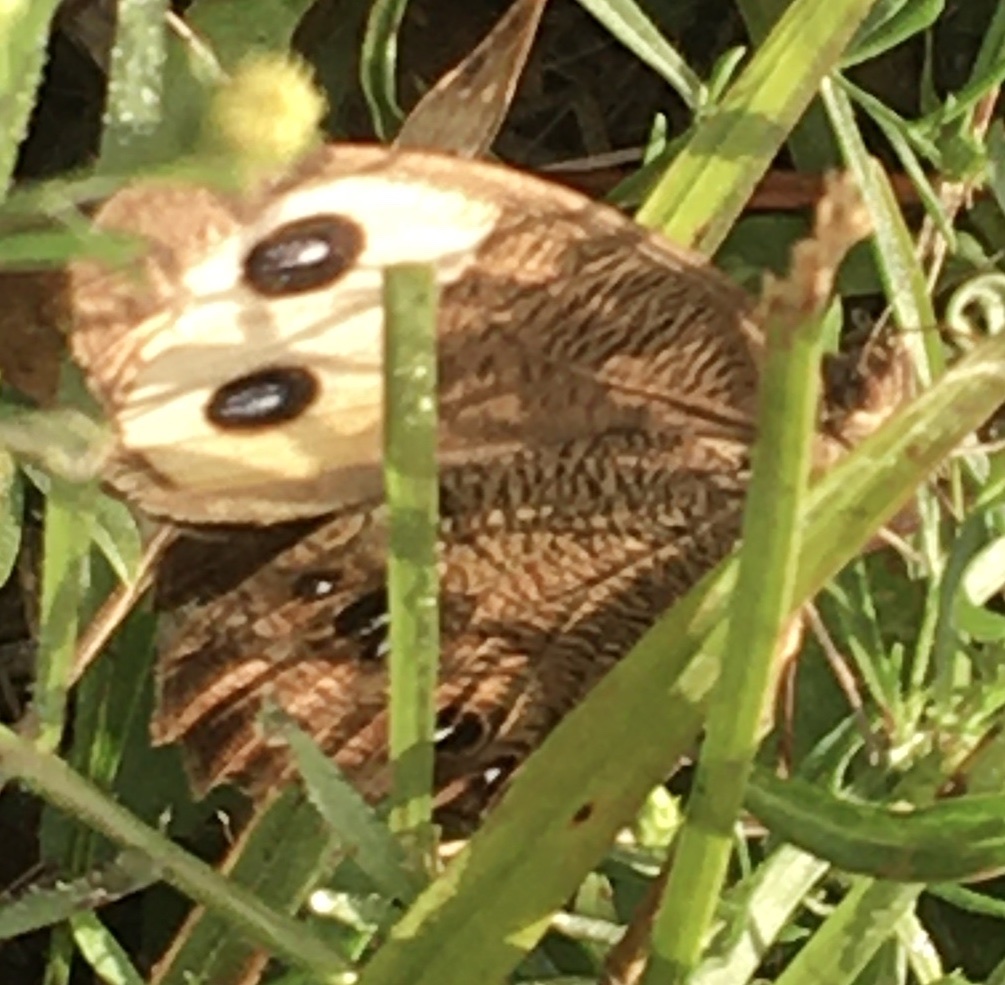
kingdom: Animalia
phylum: Arthropoda
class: Insecta
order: Lepidoptera
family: Nymphalidae
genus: Cercyonis
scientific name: Cercyonis pegala
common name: Common wood-nymph
